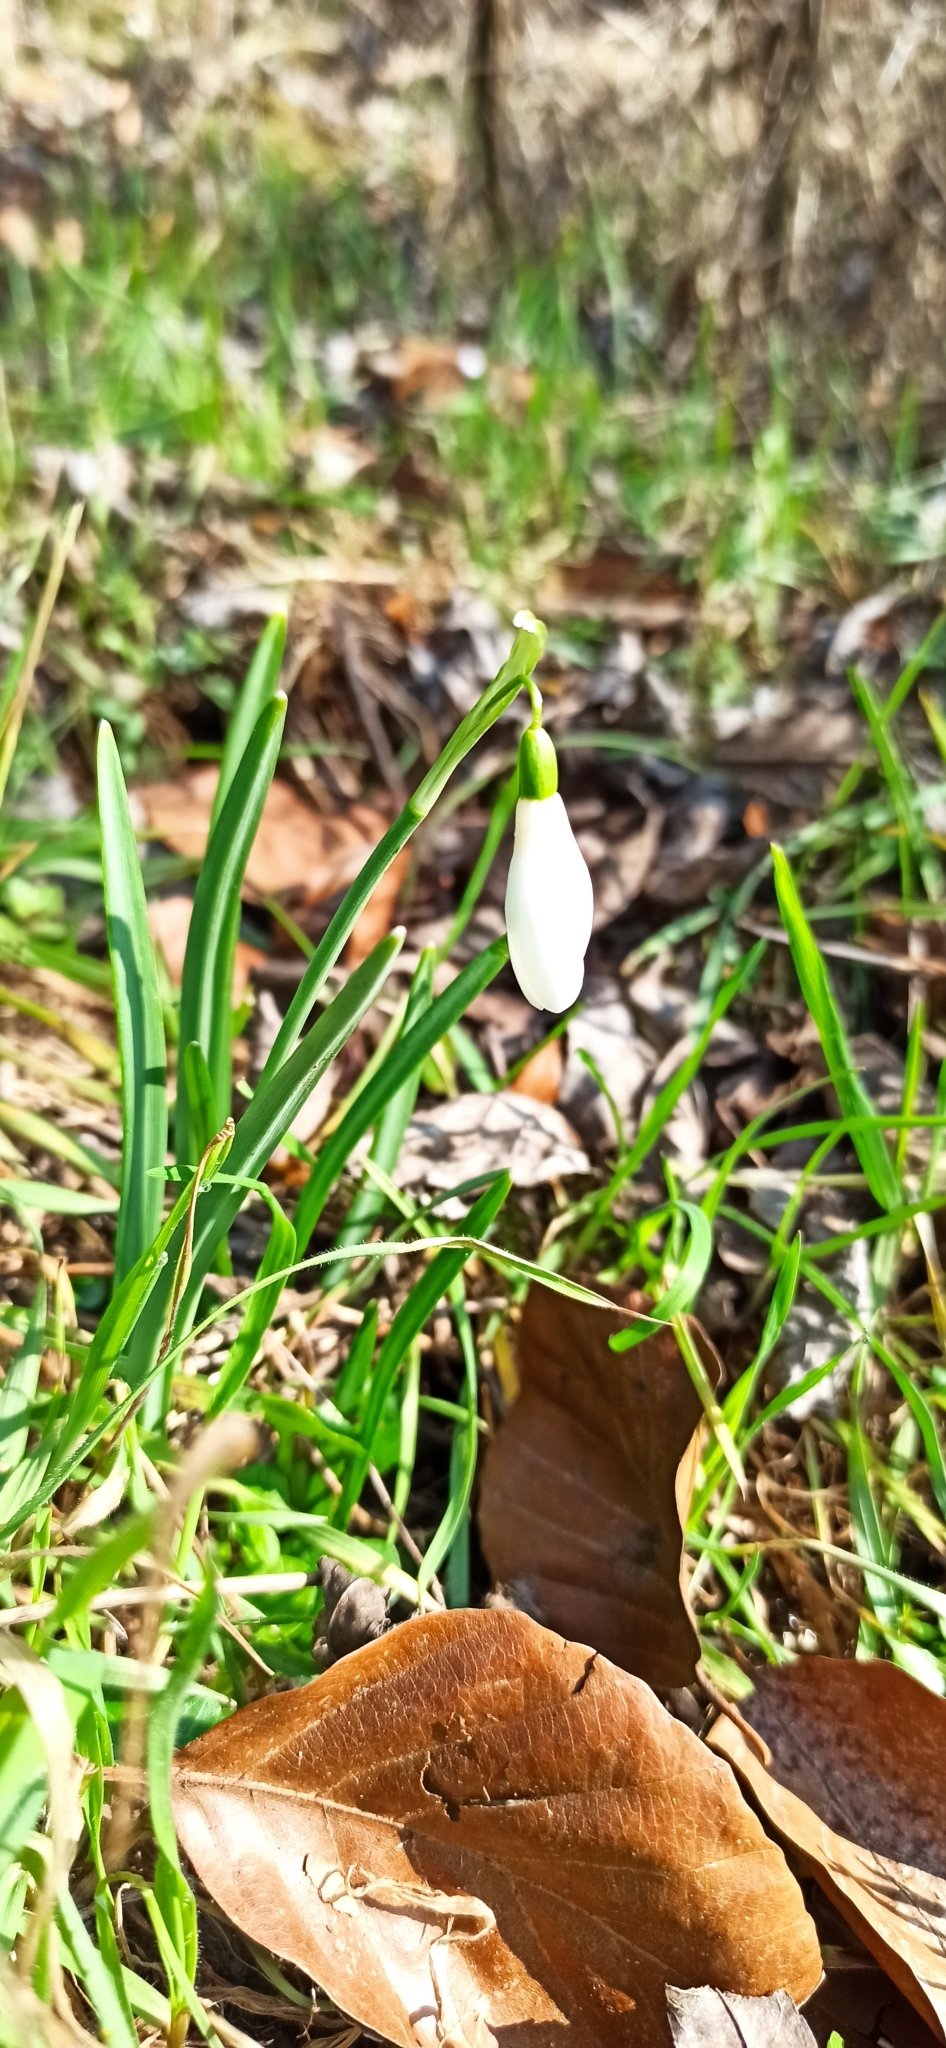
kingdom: Plantae
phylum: Tracheophyta
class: Liliopsida
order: Asparagales
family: Amaryllidaceae
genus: Galanthus
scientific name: Galanthus nivalis
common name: Snowdrop
